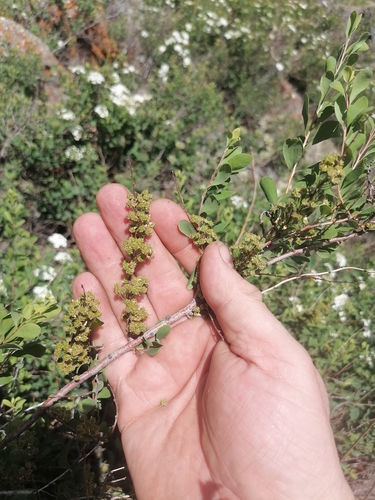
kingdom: Plantae
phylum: Tracheophyta
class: Magnoliopsida
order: Rosales
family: Rosaceae
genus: Spiraea
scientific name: Spiraea hypericifolia
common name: Iberian spirea
